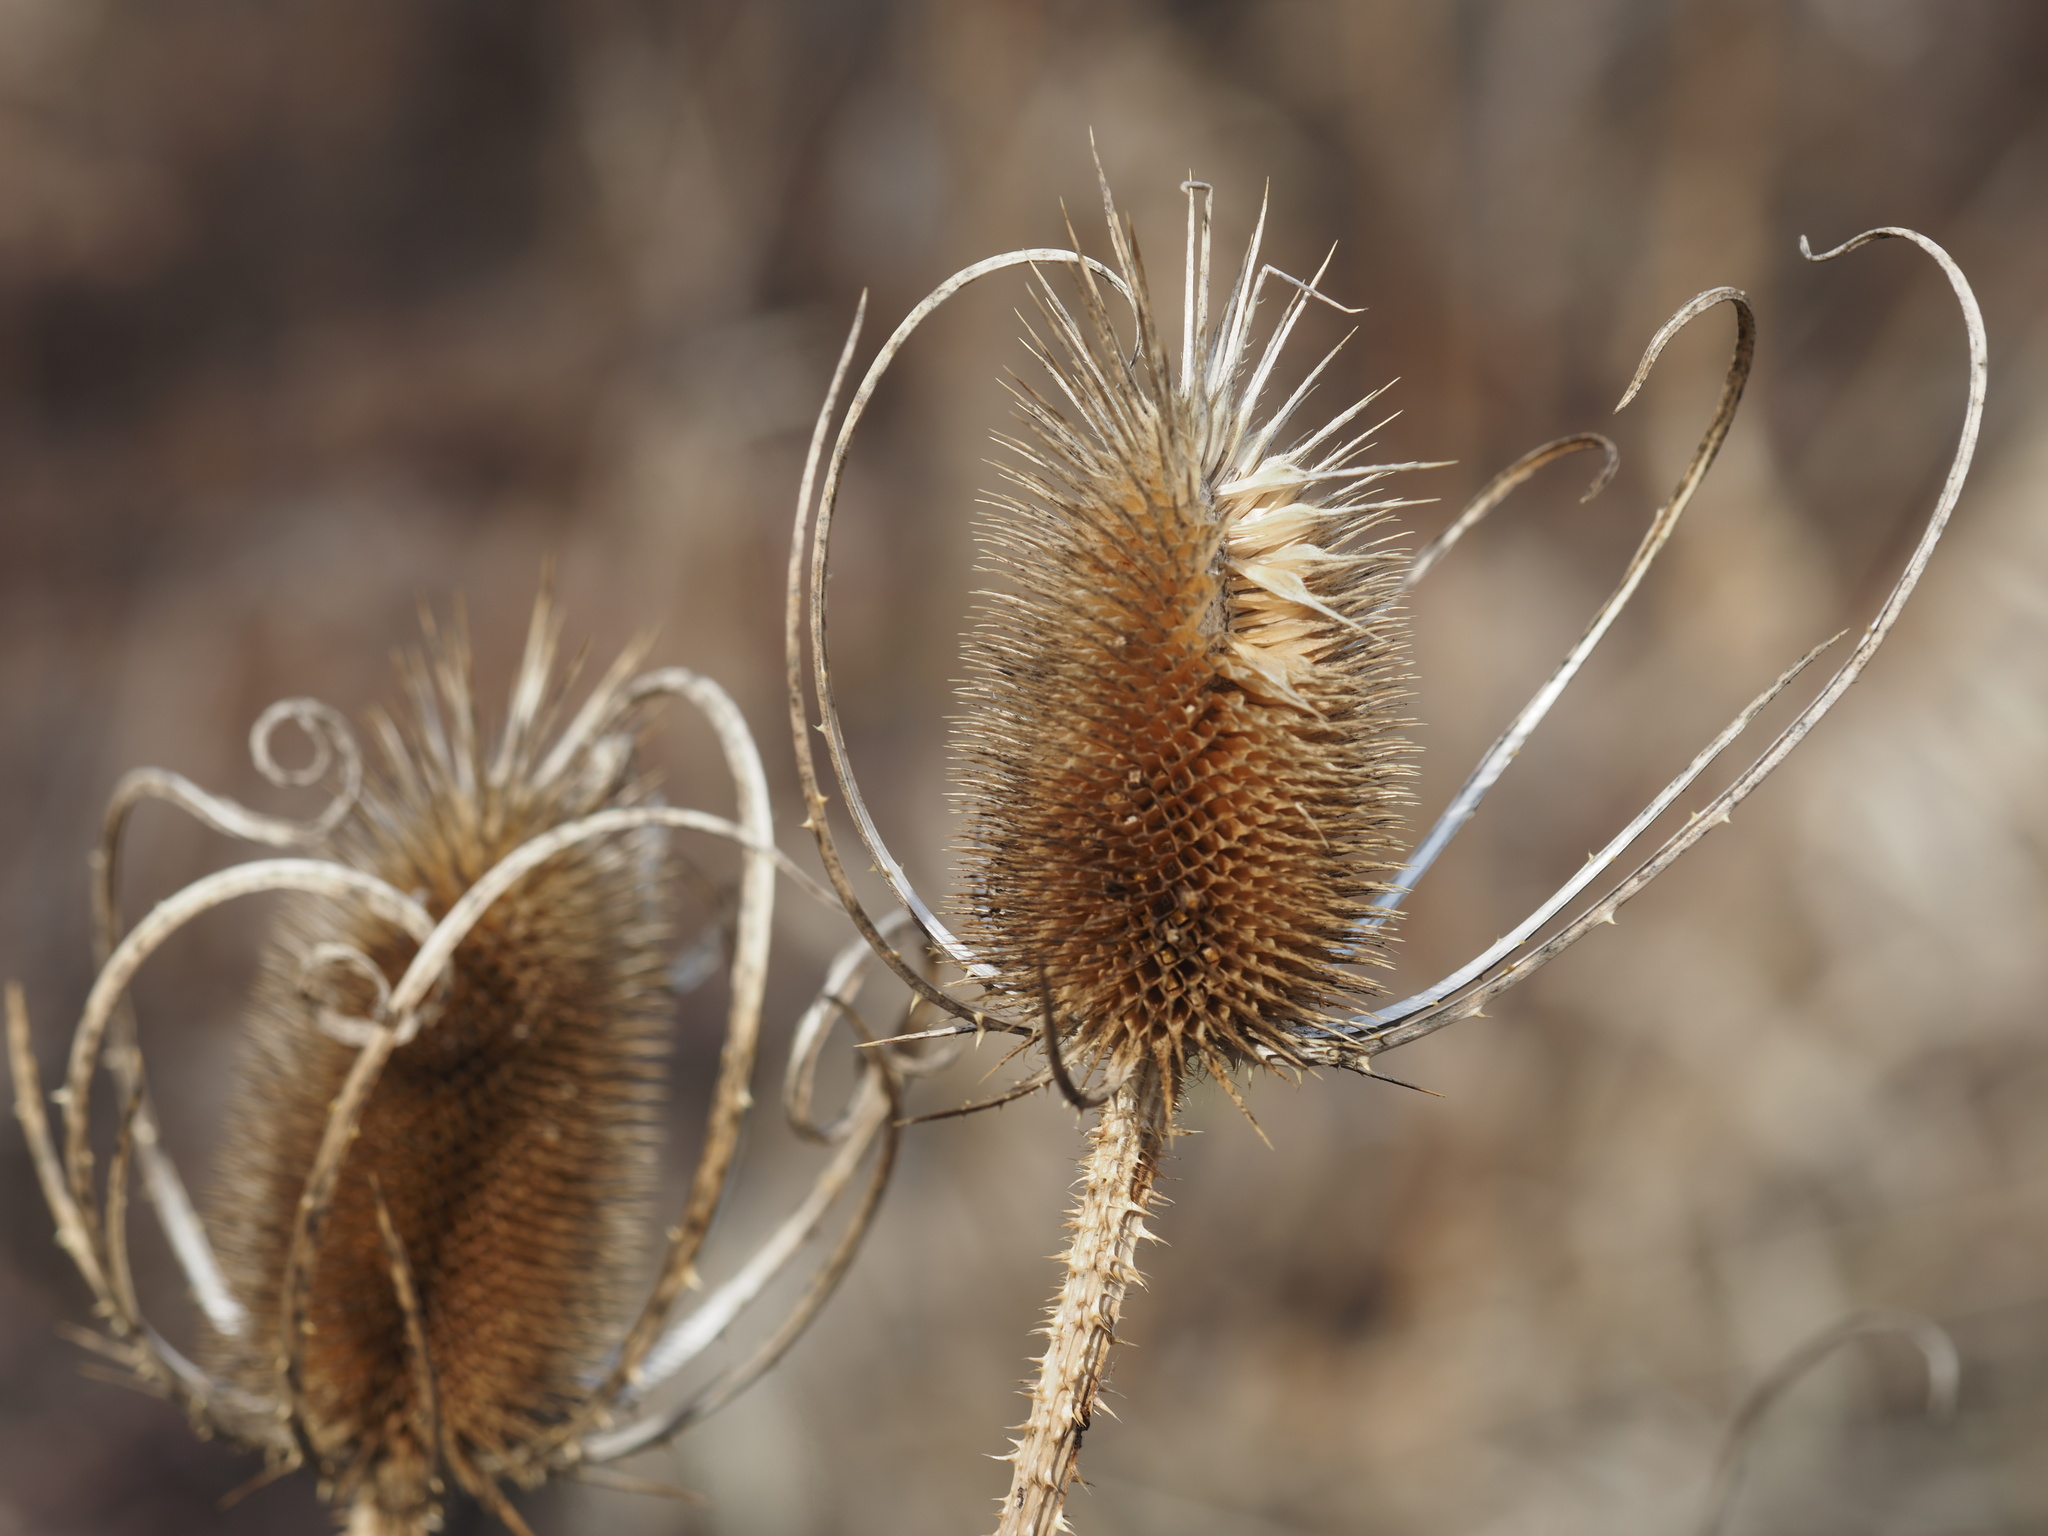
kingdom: Plantae
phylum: Tracheophyta
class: Magnoliopsida
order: Dipsacales
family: Caprifoliaceae
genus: Dipsacus
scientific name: Dipsacus fullonum
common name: Teasel
